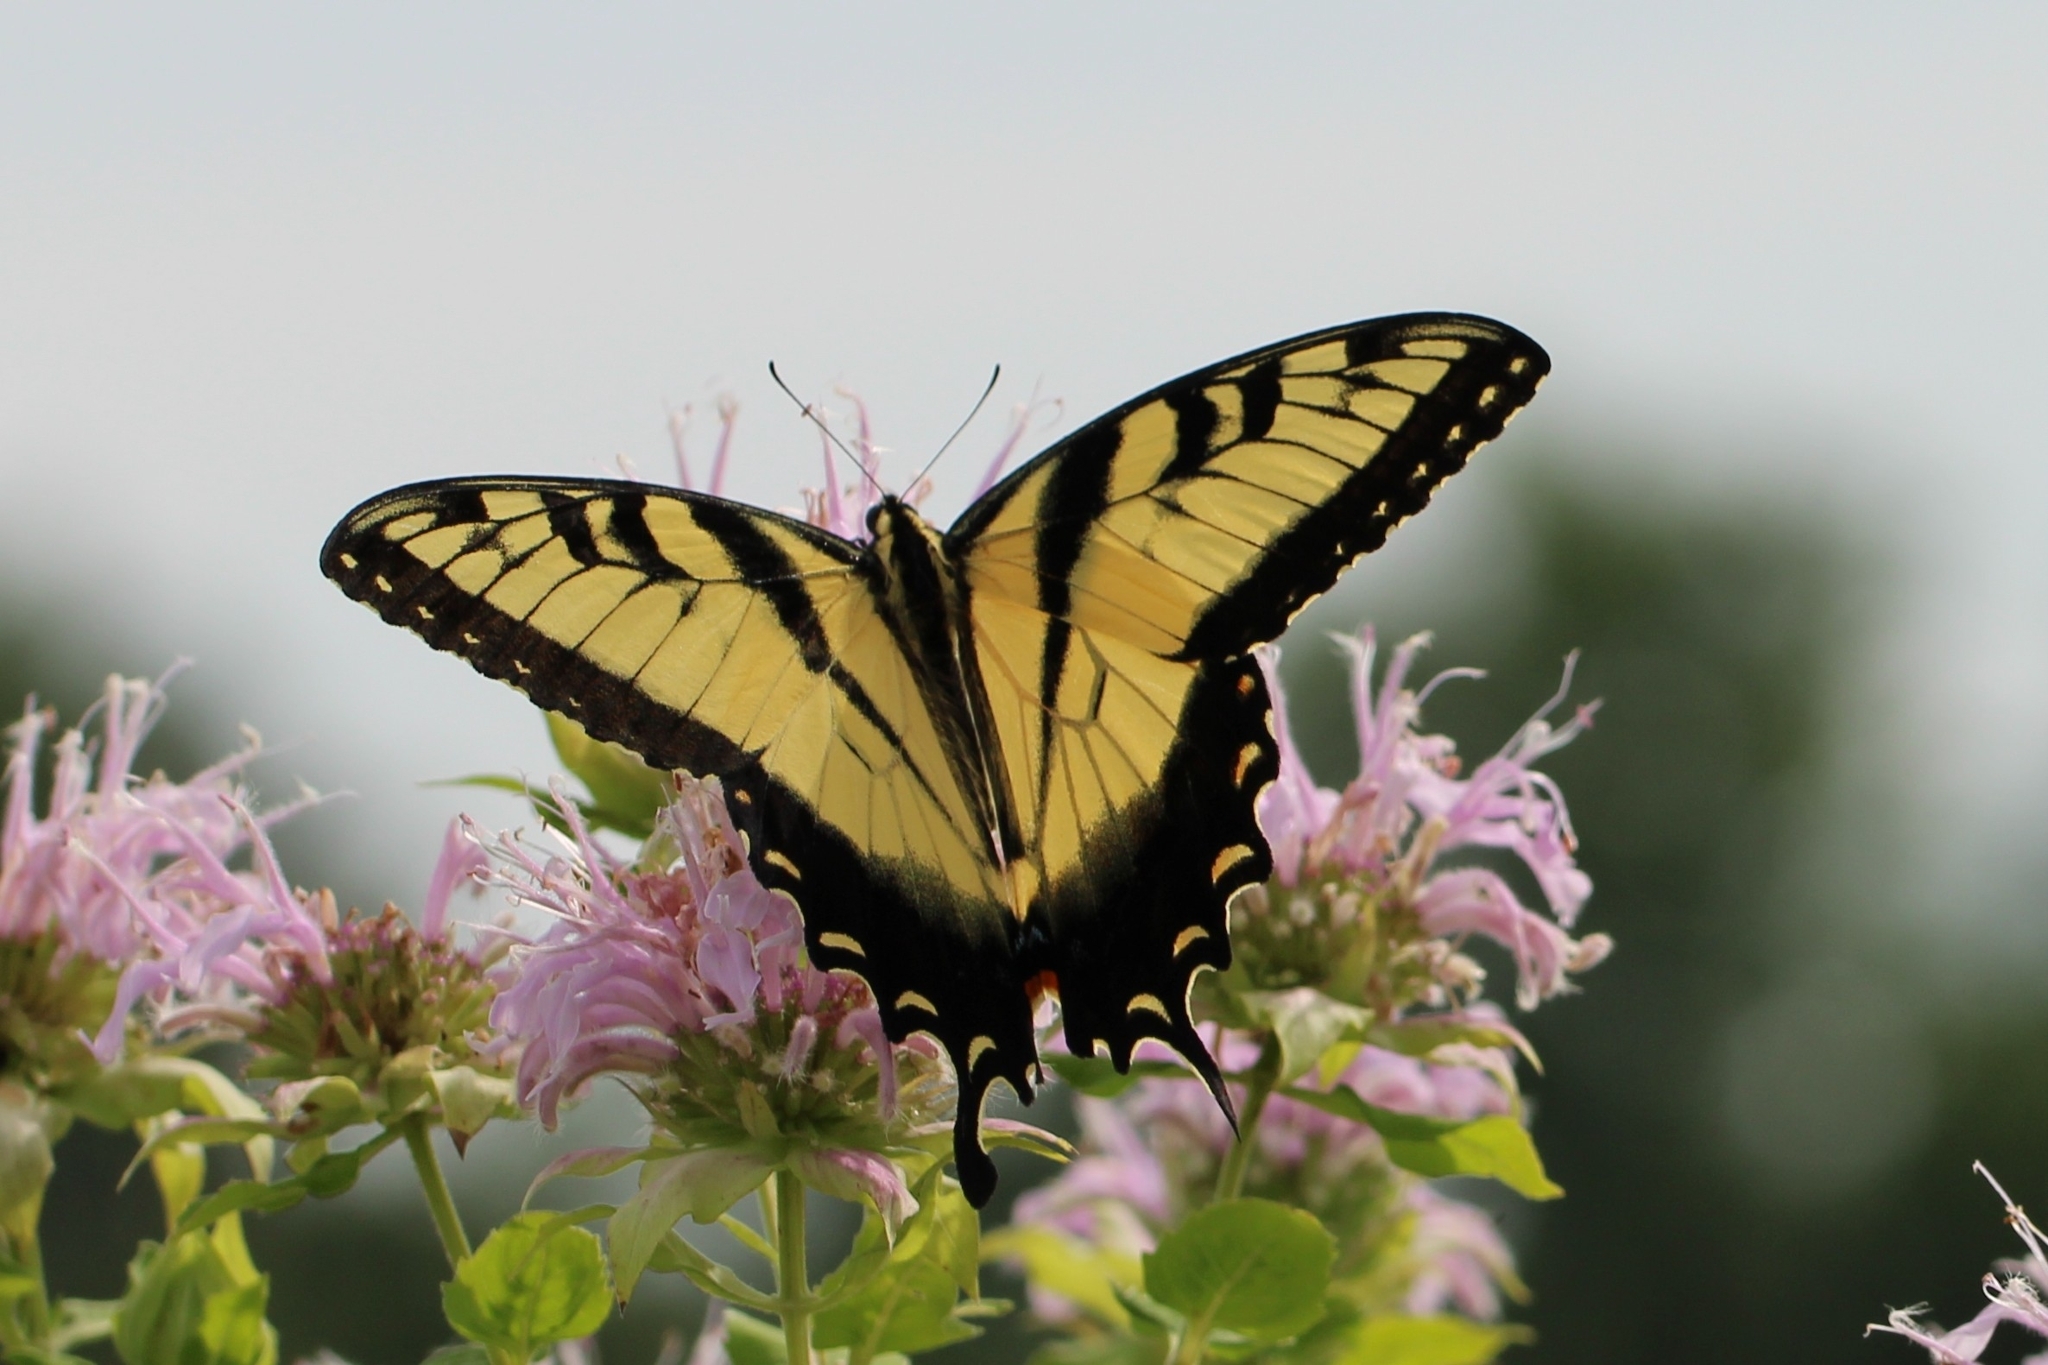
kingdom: Animalia
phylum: Arthropoda
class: Insecta
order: Lepidoptera
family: Papilionidae
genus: Papilio
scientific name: Papilio glaucus
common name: Tiger swallowtail
